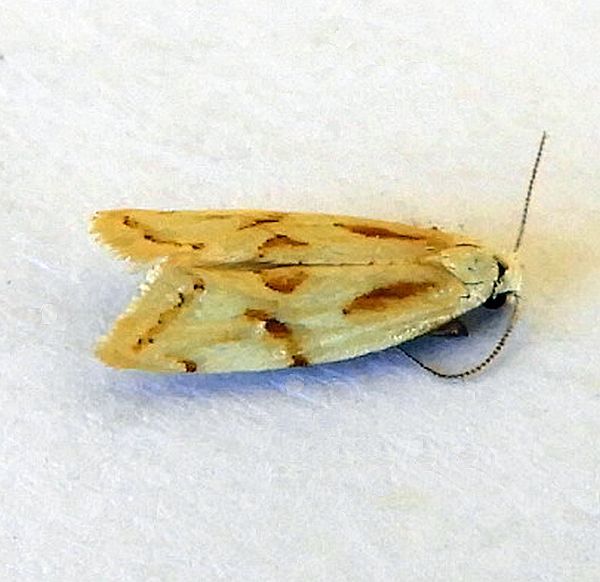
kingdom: Animalia
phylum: Arthropoda
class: Insecta
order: Lepidoptera
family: Tortricidae
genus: Aethes
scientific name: Aethes sonorae
